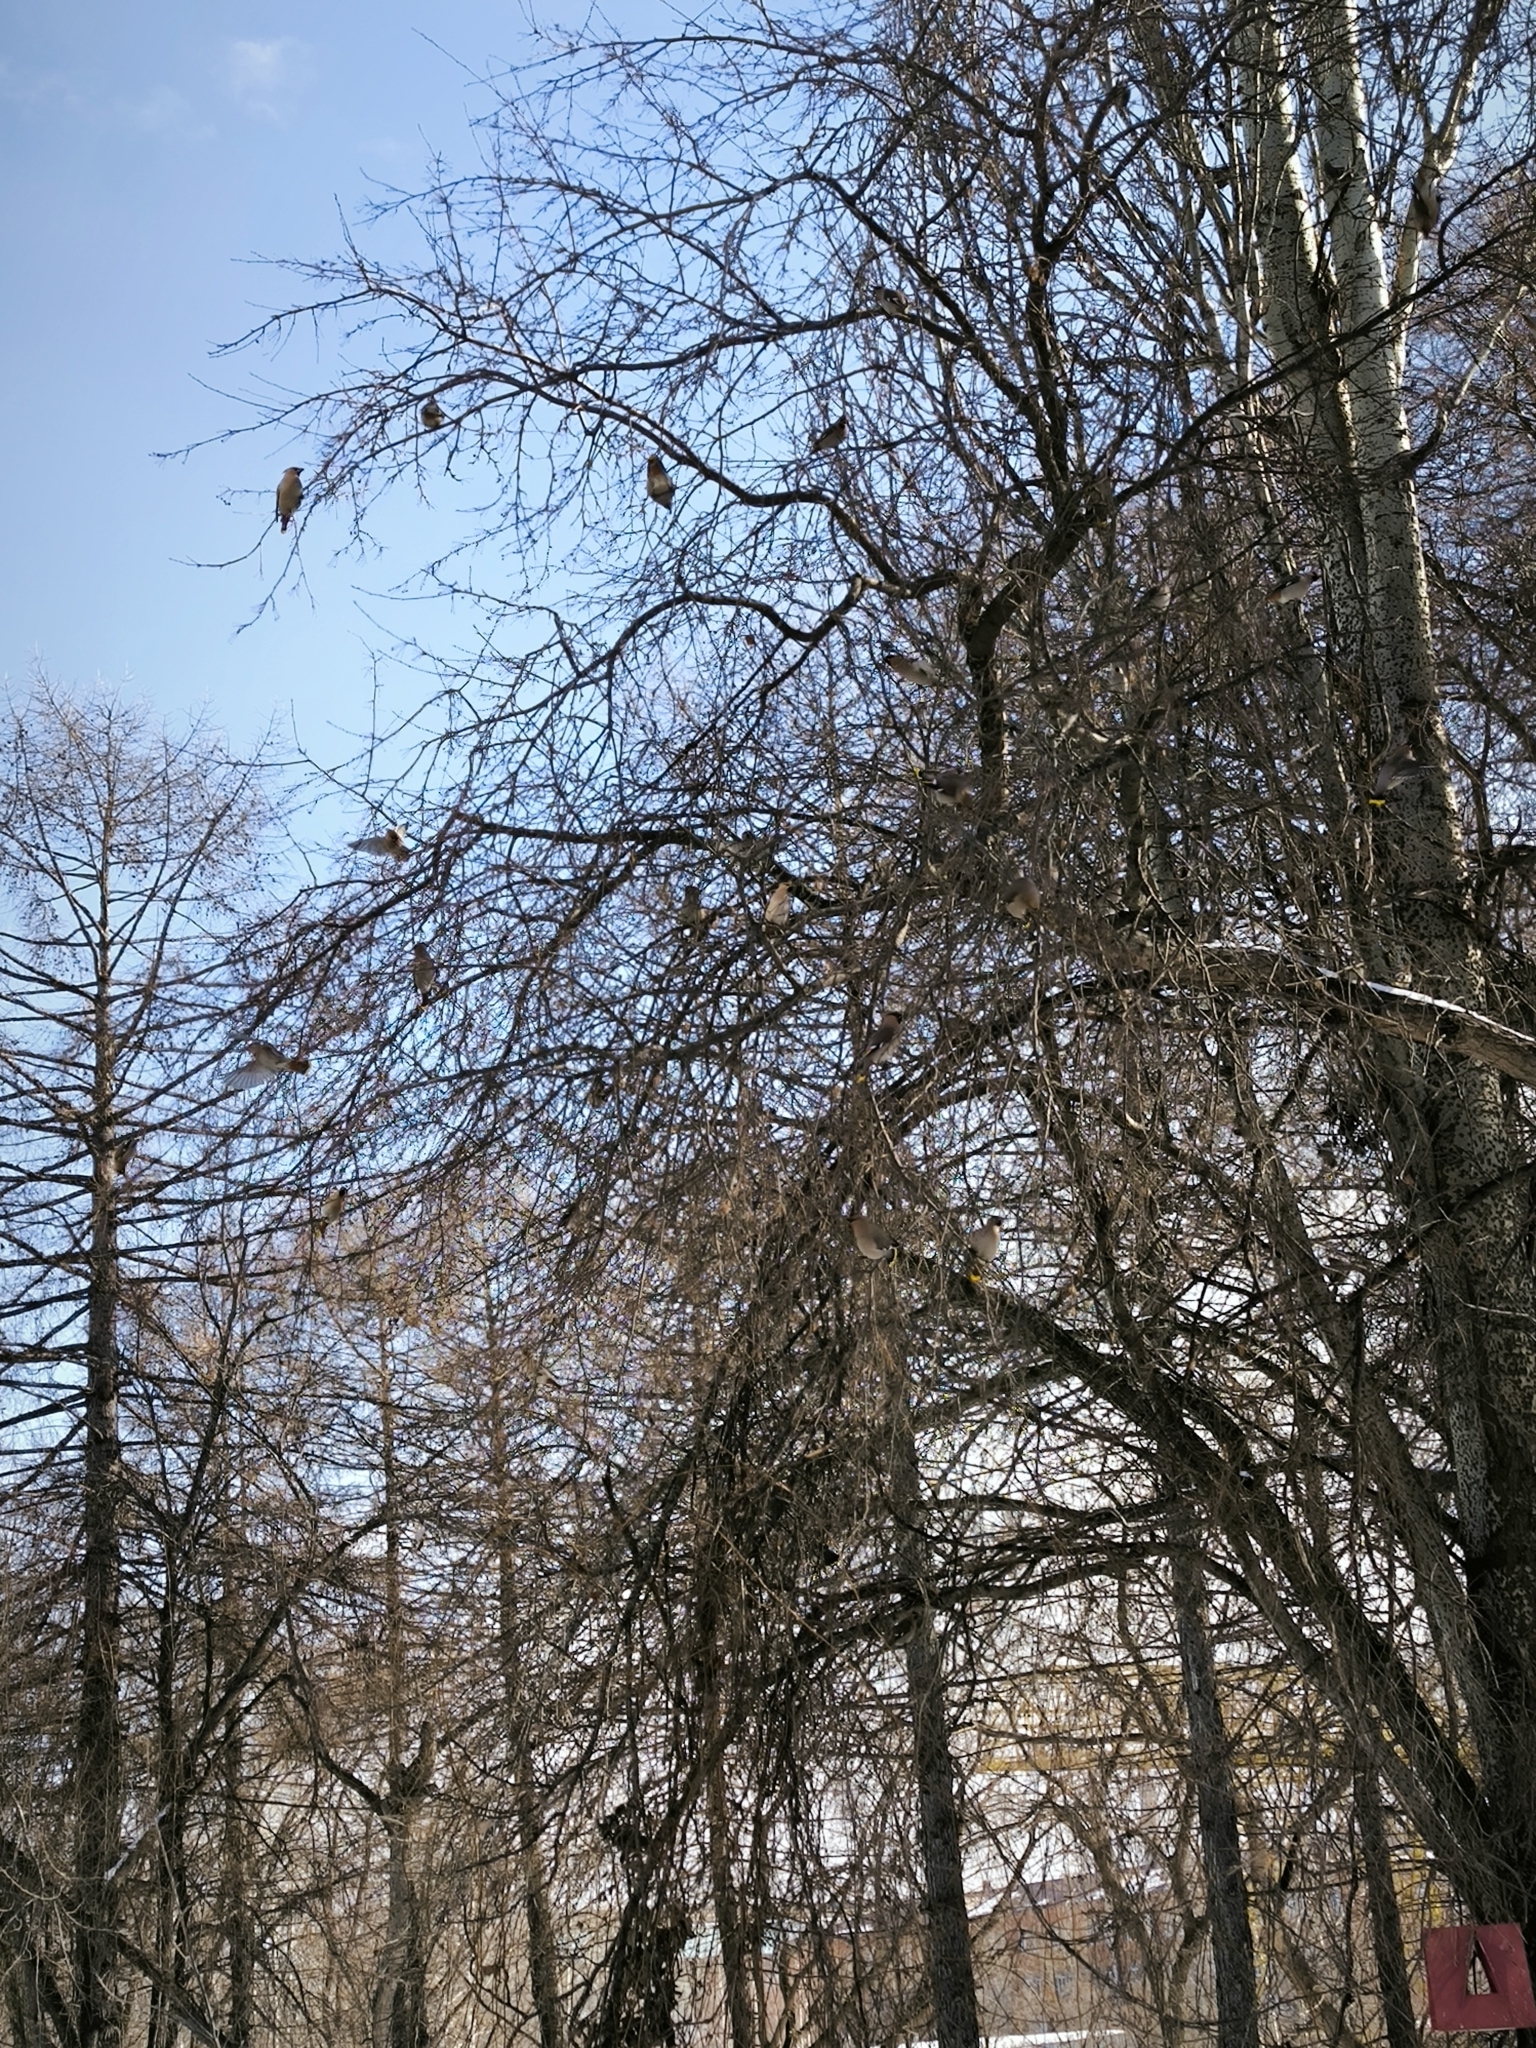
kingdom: Animalia
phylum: Chordata
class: Aves
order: Passeriformes
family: Bombycillidae
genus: Bombycilla
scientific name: Bombycilla garrulus
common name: Bohemian waxwing
